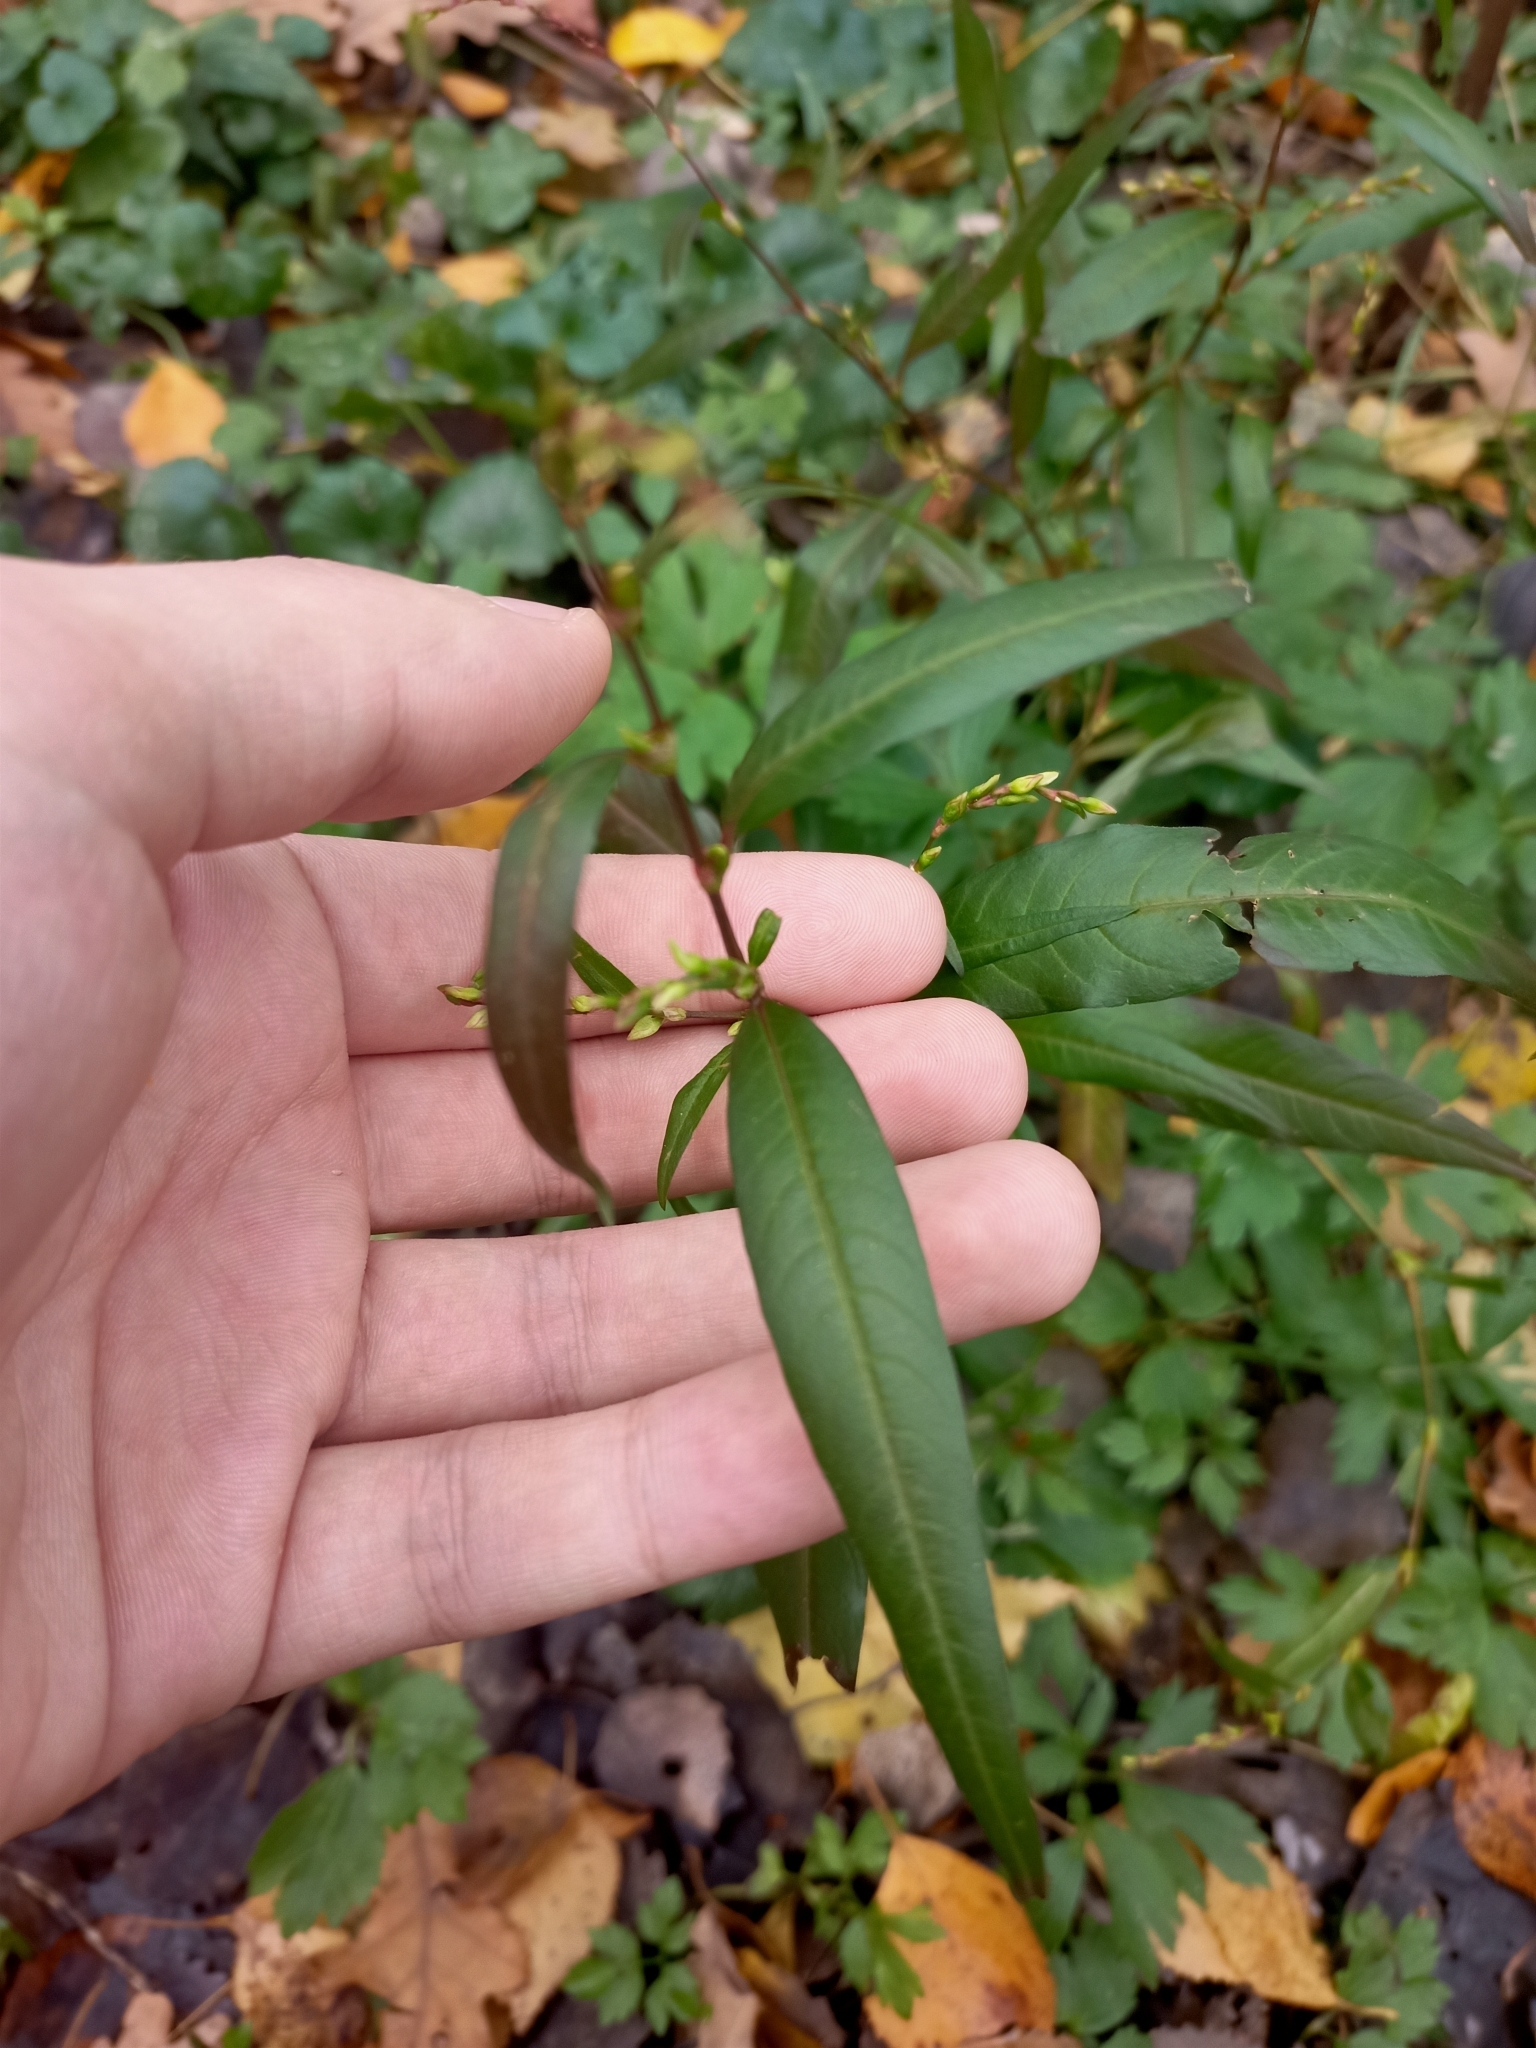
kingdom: Plantae
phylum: Tracheophyta
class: Magnoliopsida
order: Caryophyllales
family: Polygonaceae
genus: Persicaria
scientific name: Persicaria hydropiper
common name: Water-pepper
